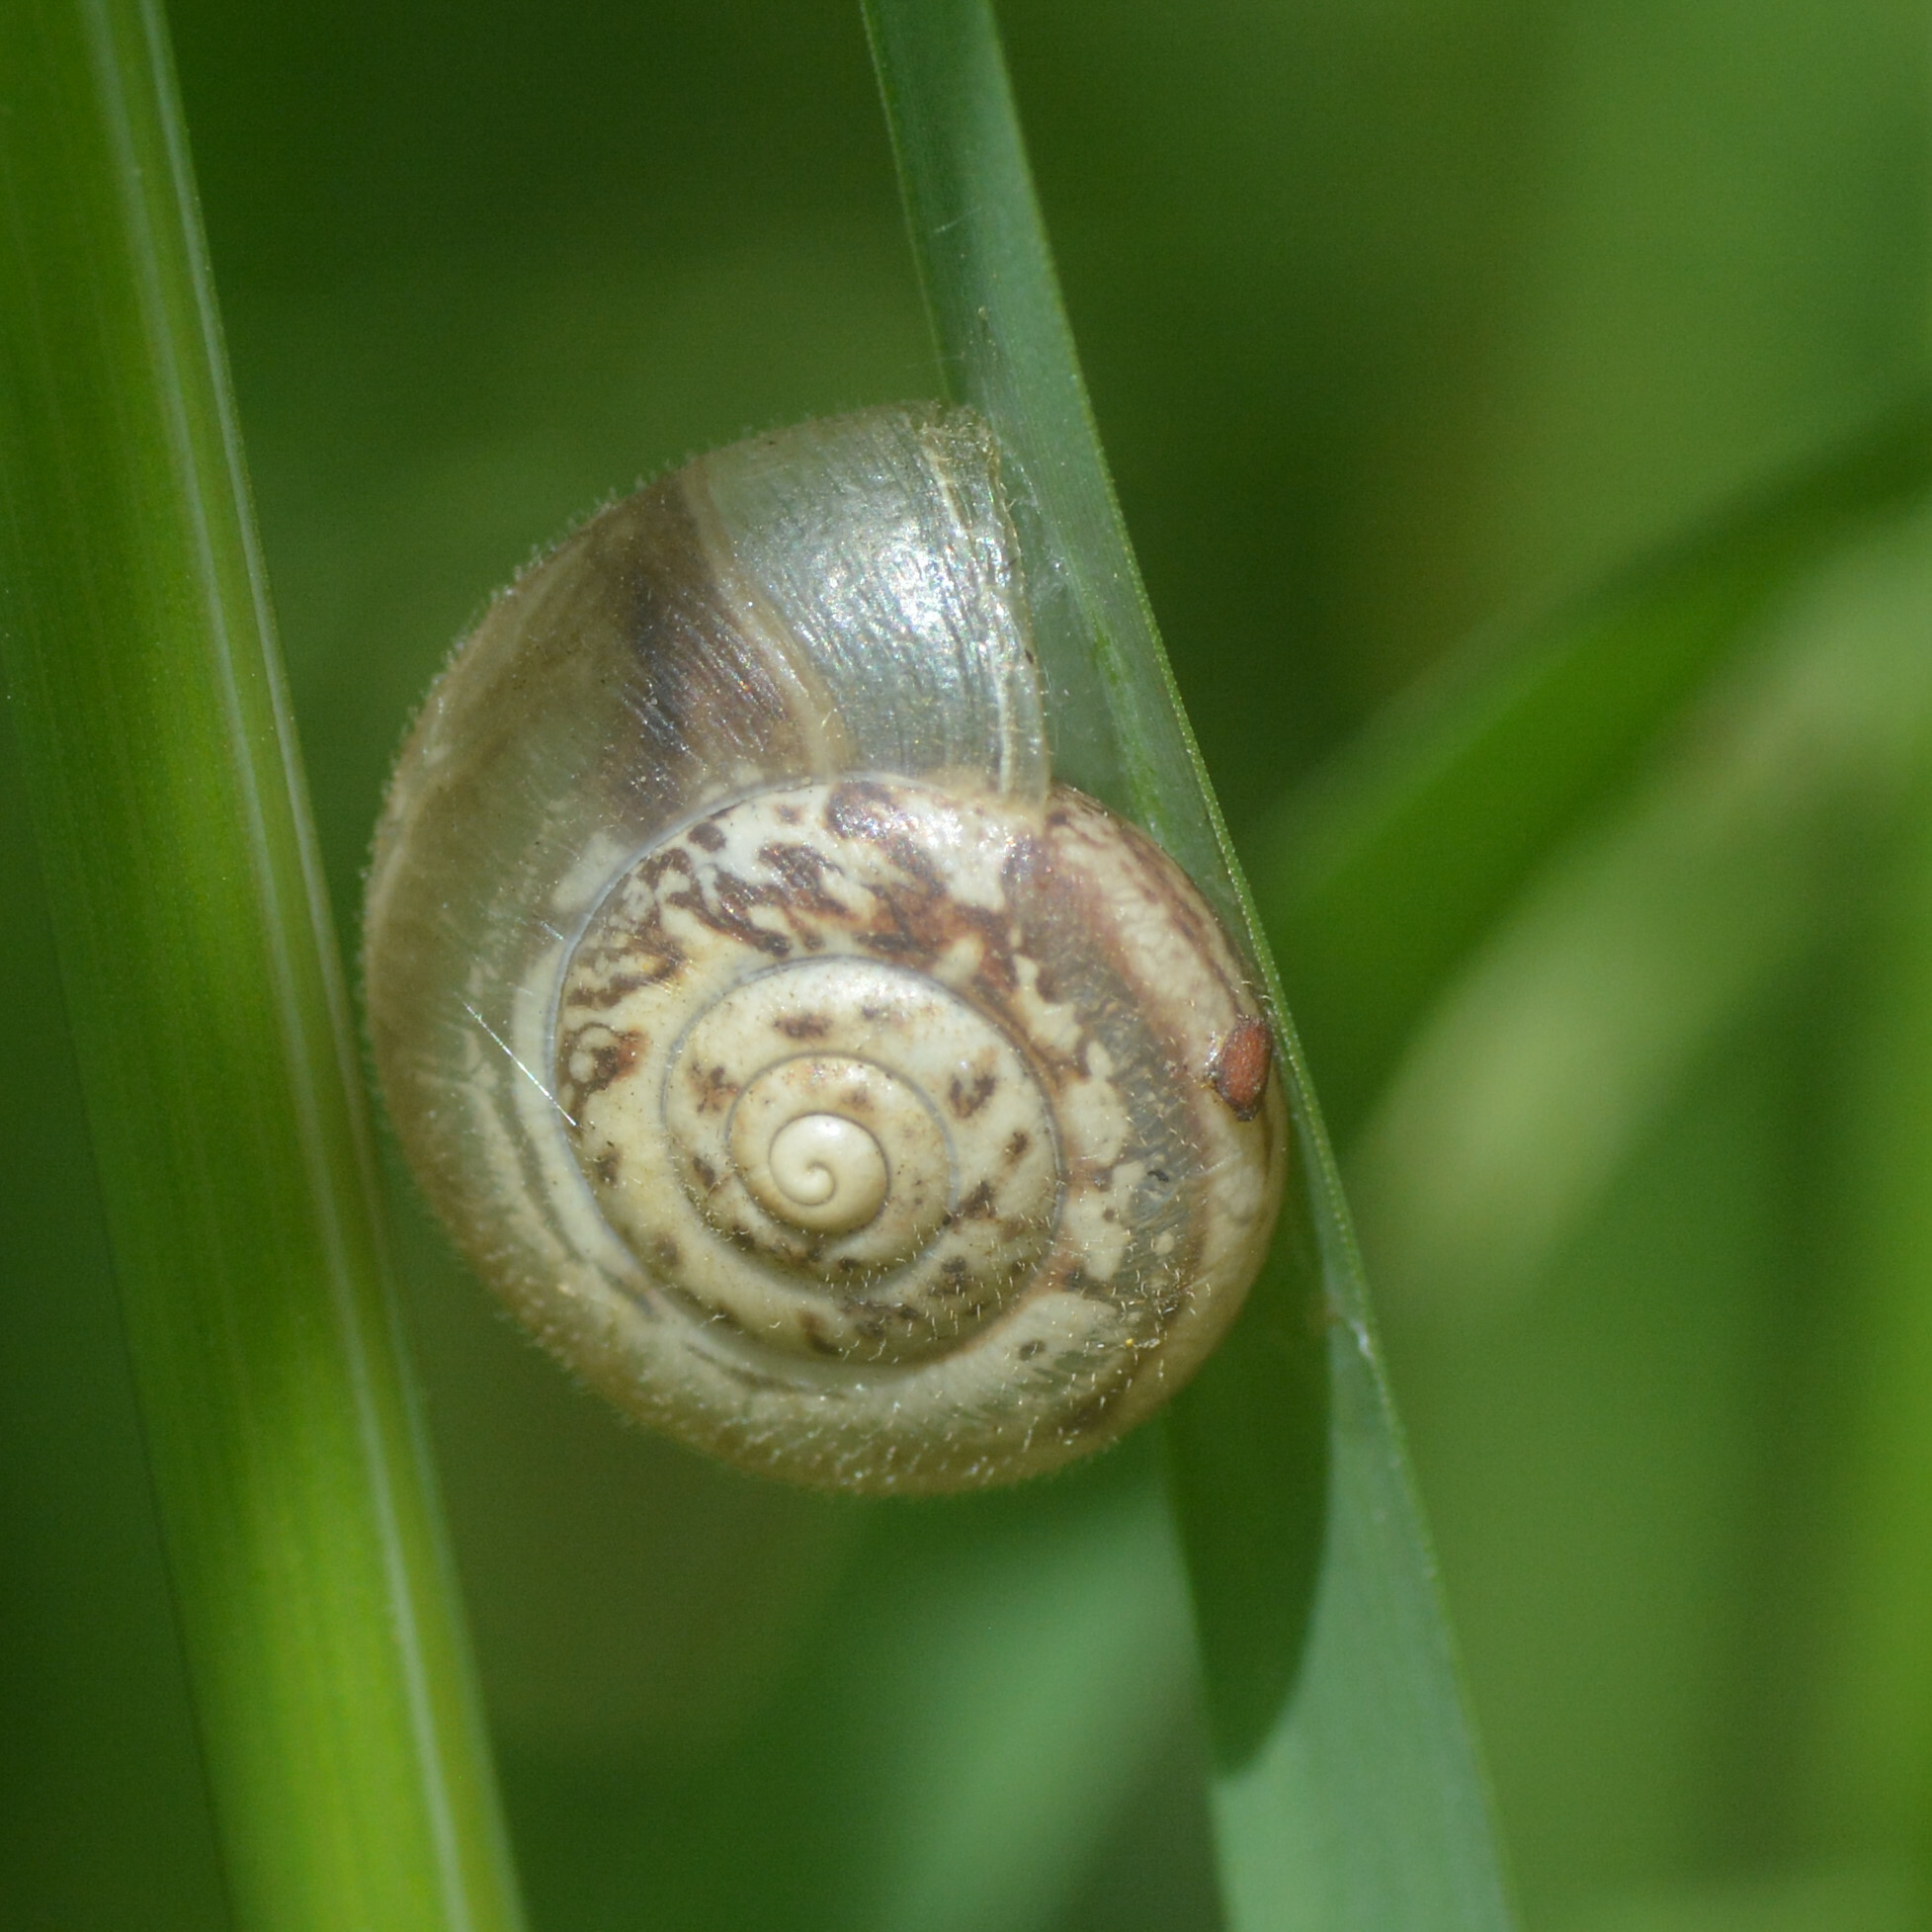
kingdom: Animalia
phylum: Mollusca
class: Gastropoda
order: Stylommatophora
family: Hygromiidae
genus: Monacha
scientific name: Monacha cantiana
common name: Kentish snail
